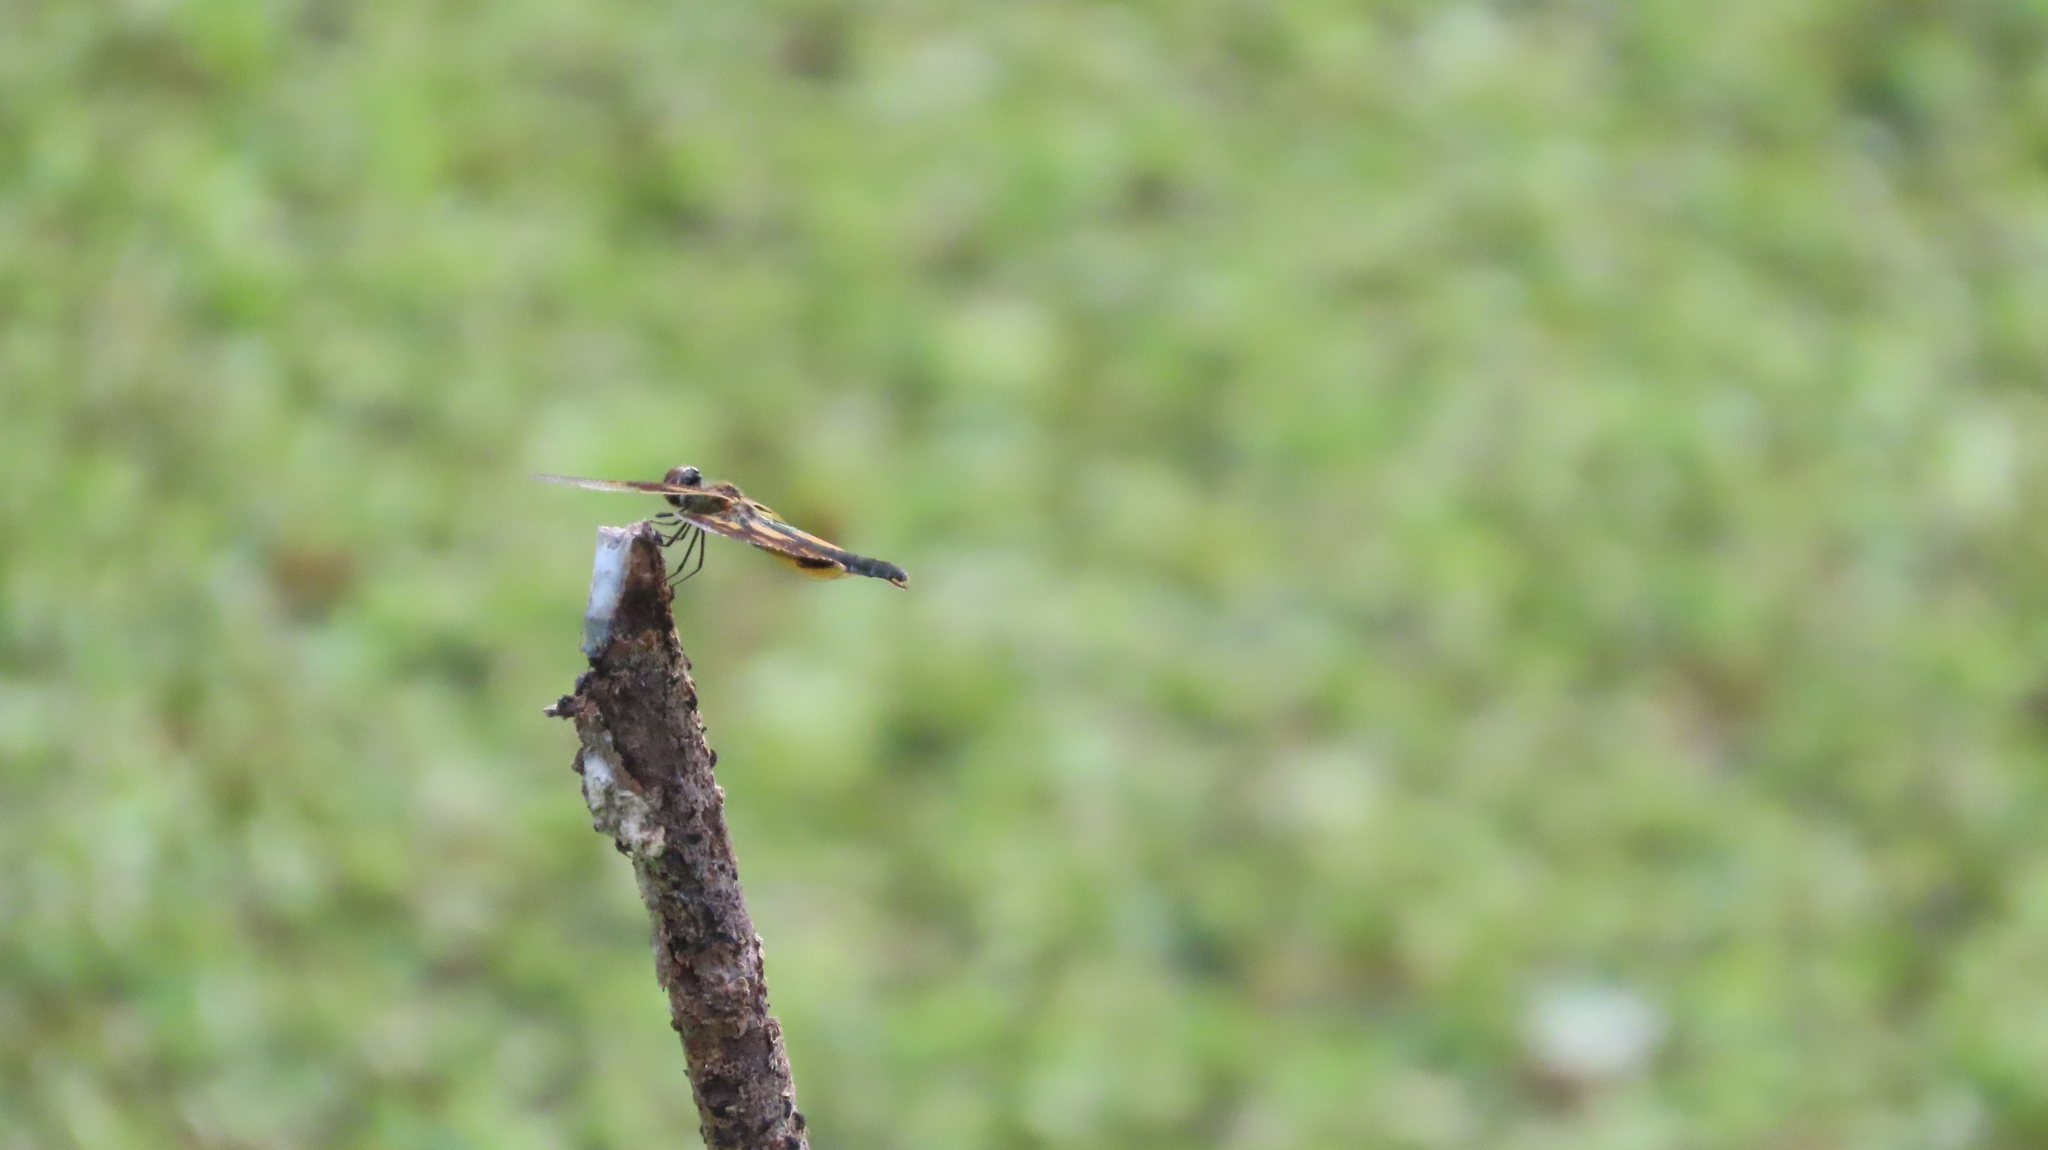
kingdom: Animalia
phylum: Arthropoda
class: Insecta
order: Odonata
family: Libellulidae
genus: Rhyothemis
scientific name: Rhyothemis variegata
